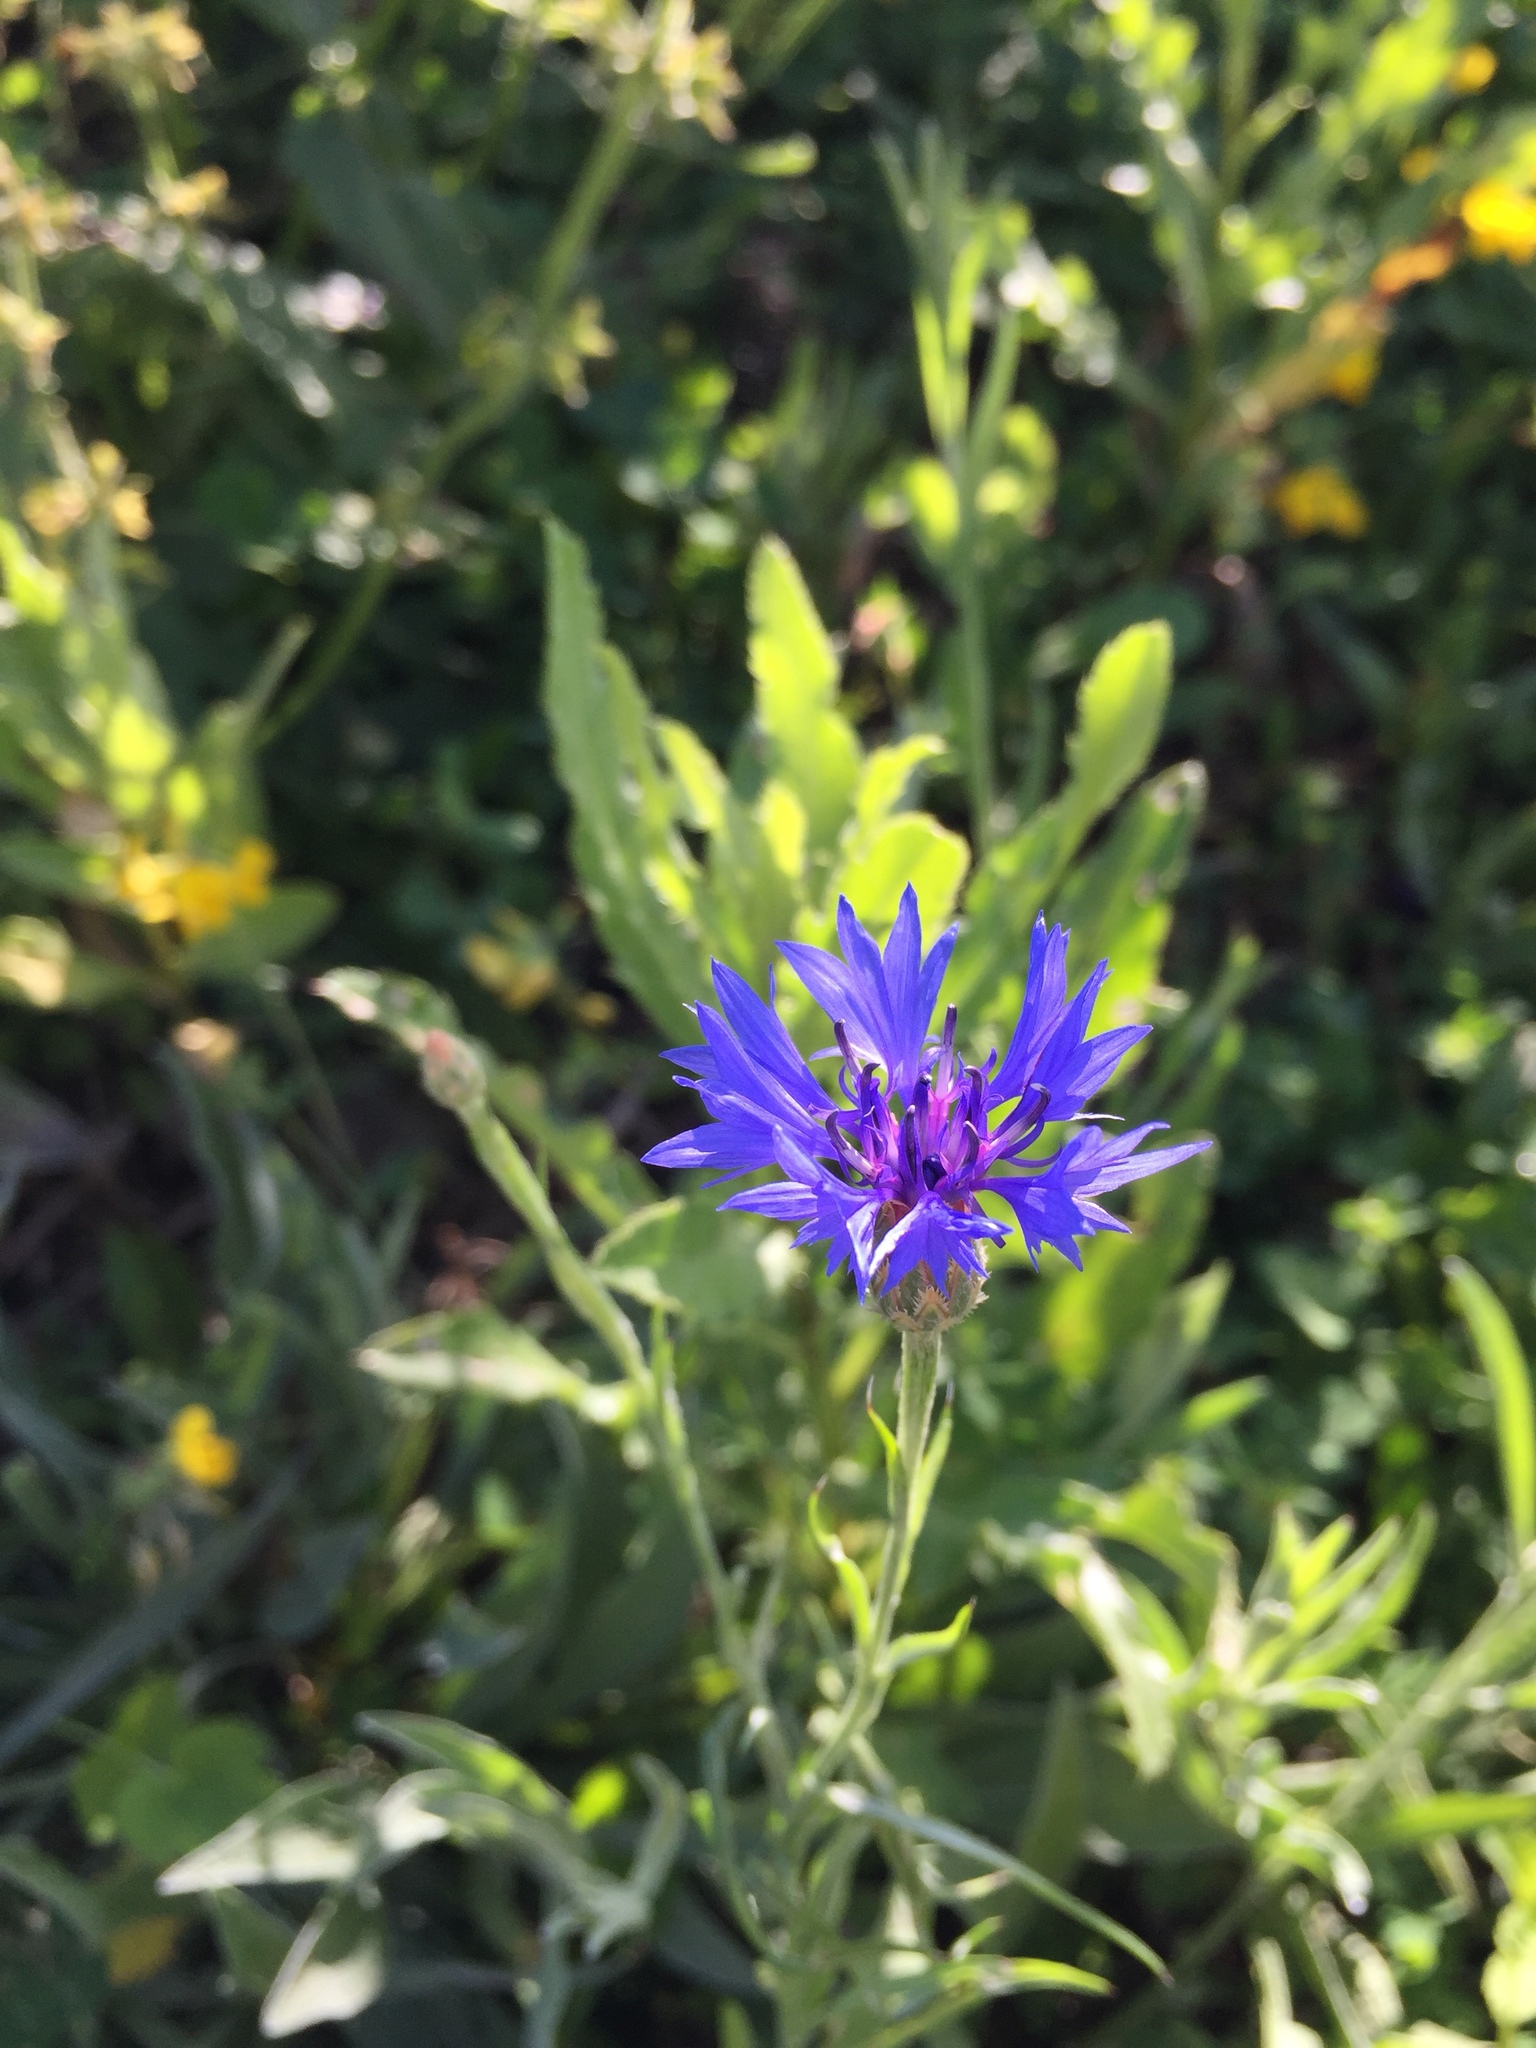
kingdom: Plantae
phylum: Tracheophyta
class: Magnoliopsida
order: Asterales
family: Asteraceae
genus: Centaurea
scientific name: Centaurea cyanus
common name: Cornflower
